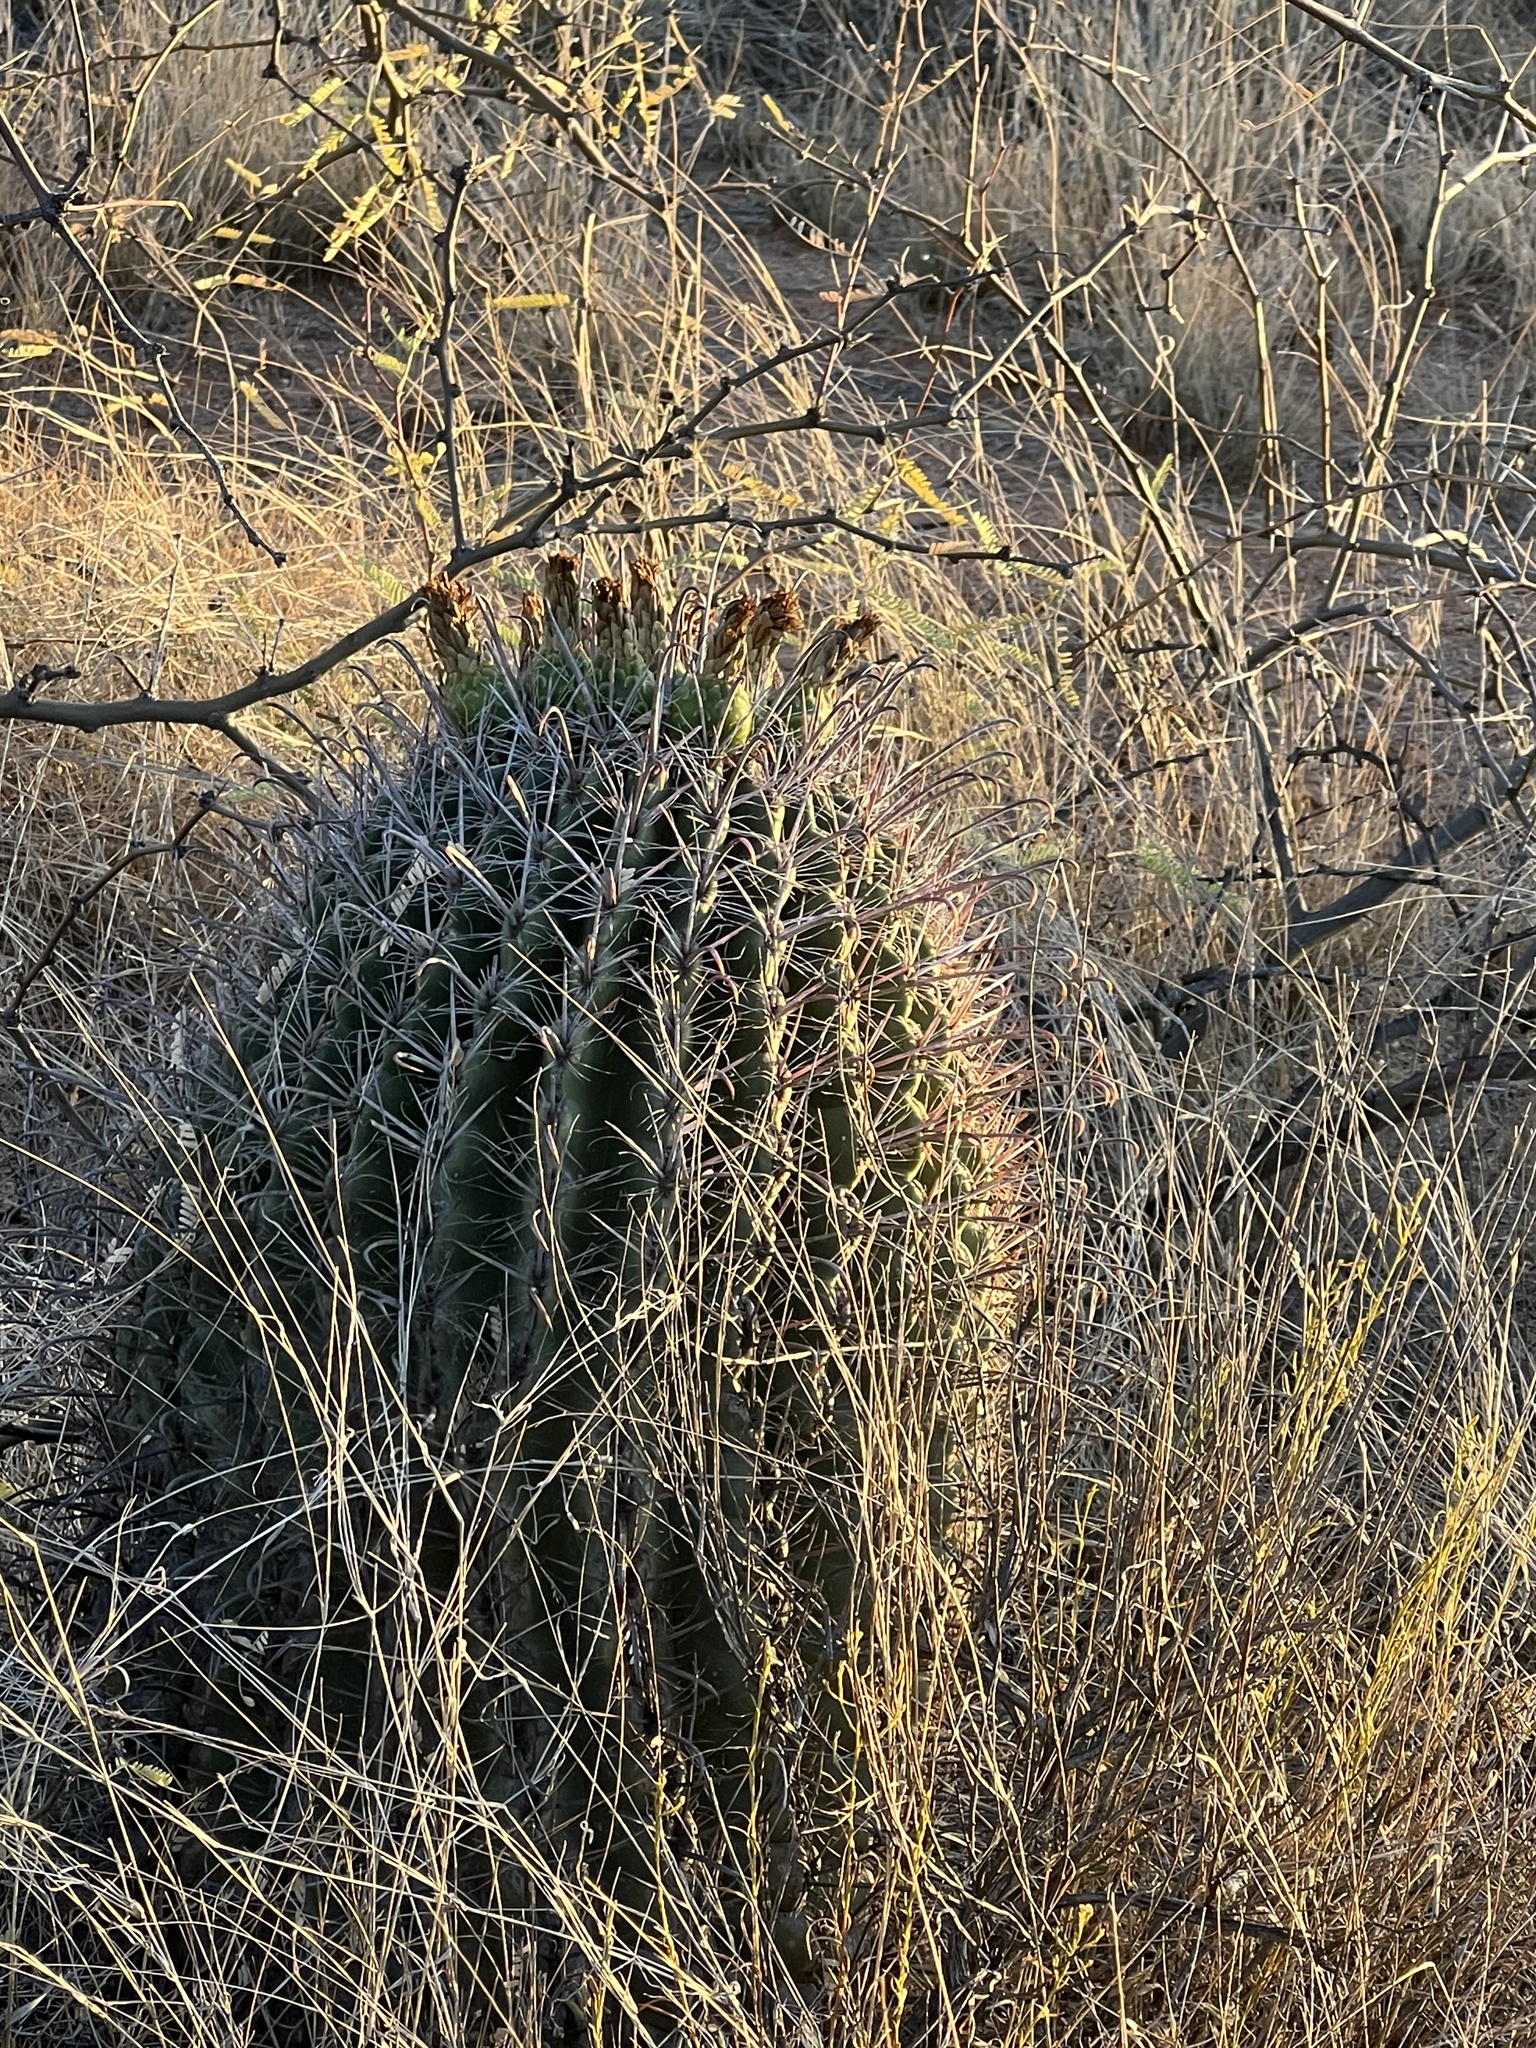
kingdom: Plantae
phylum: Tracheophyta
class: Magnoliopsida
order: Caryophyllales
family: Cactaceae
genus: Ferocactus
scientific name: Ferocactus wislizeni
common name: Candy barrel cactus
